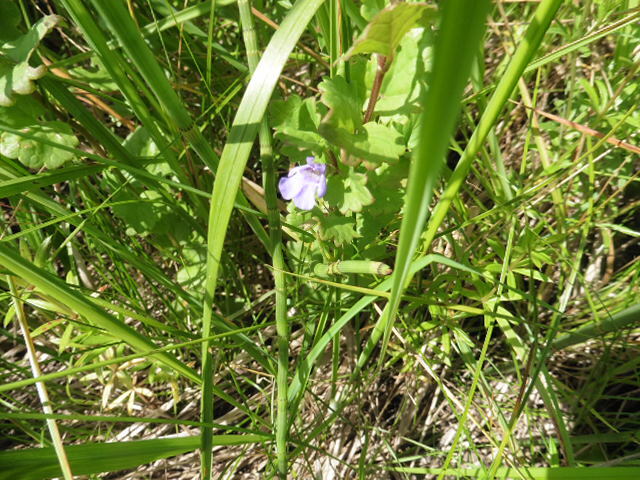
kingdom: Plantae
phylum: Tracheophyta
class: Magnoliopsida
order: Lamiales
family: Lamiaceae
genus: Glechoma
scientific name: Glechoma hederacea
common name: Ground ivy
